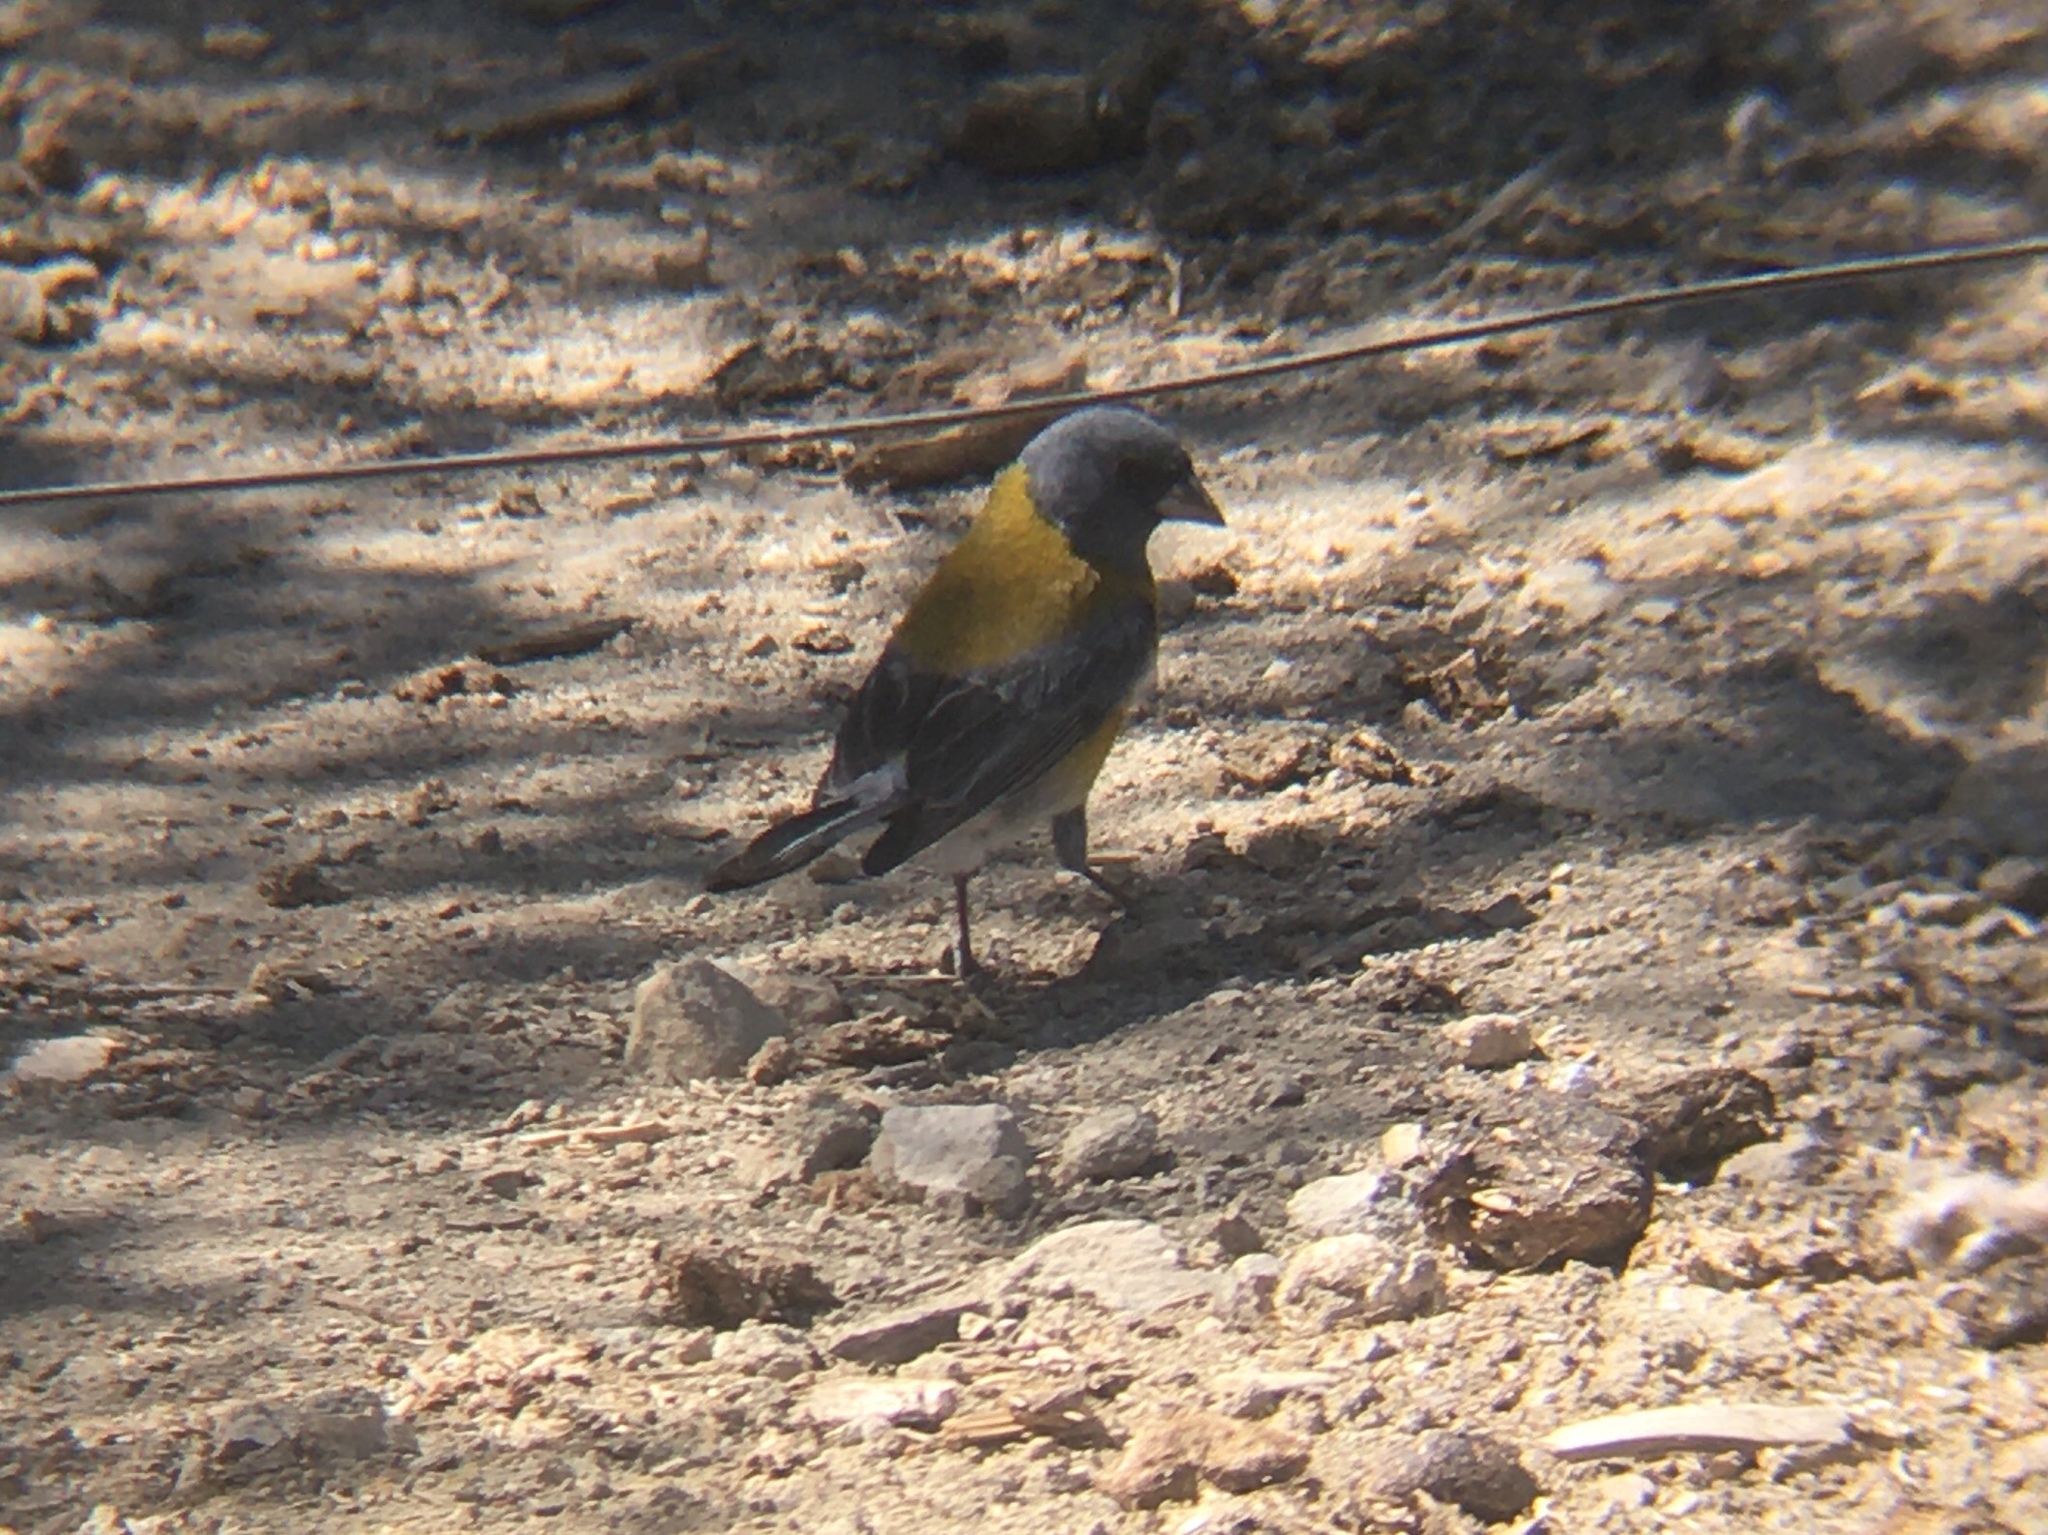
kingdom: Animalia
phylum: Chordata
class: Aves
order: Passeriformes
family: Thraupidae
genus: Phrygilus
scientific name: Phrygilus gayi
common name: Grey-hooded sierra finch
